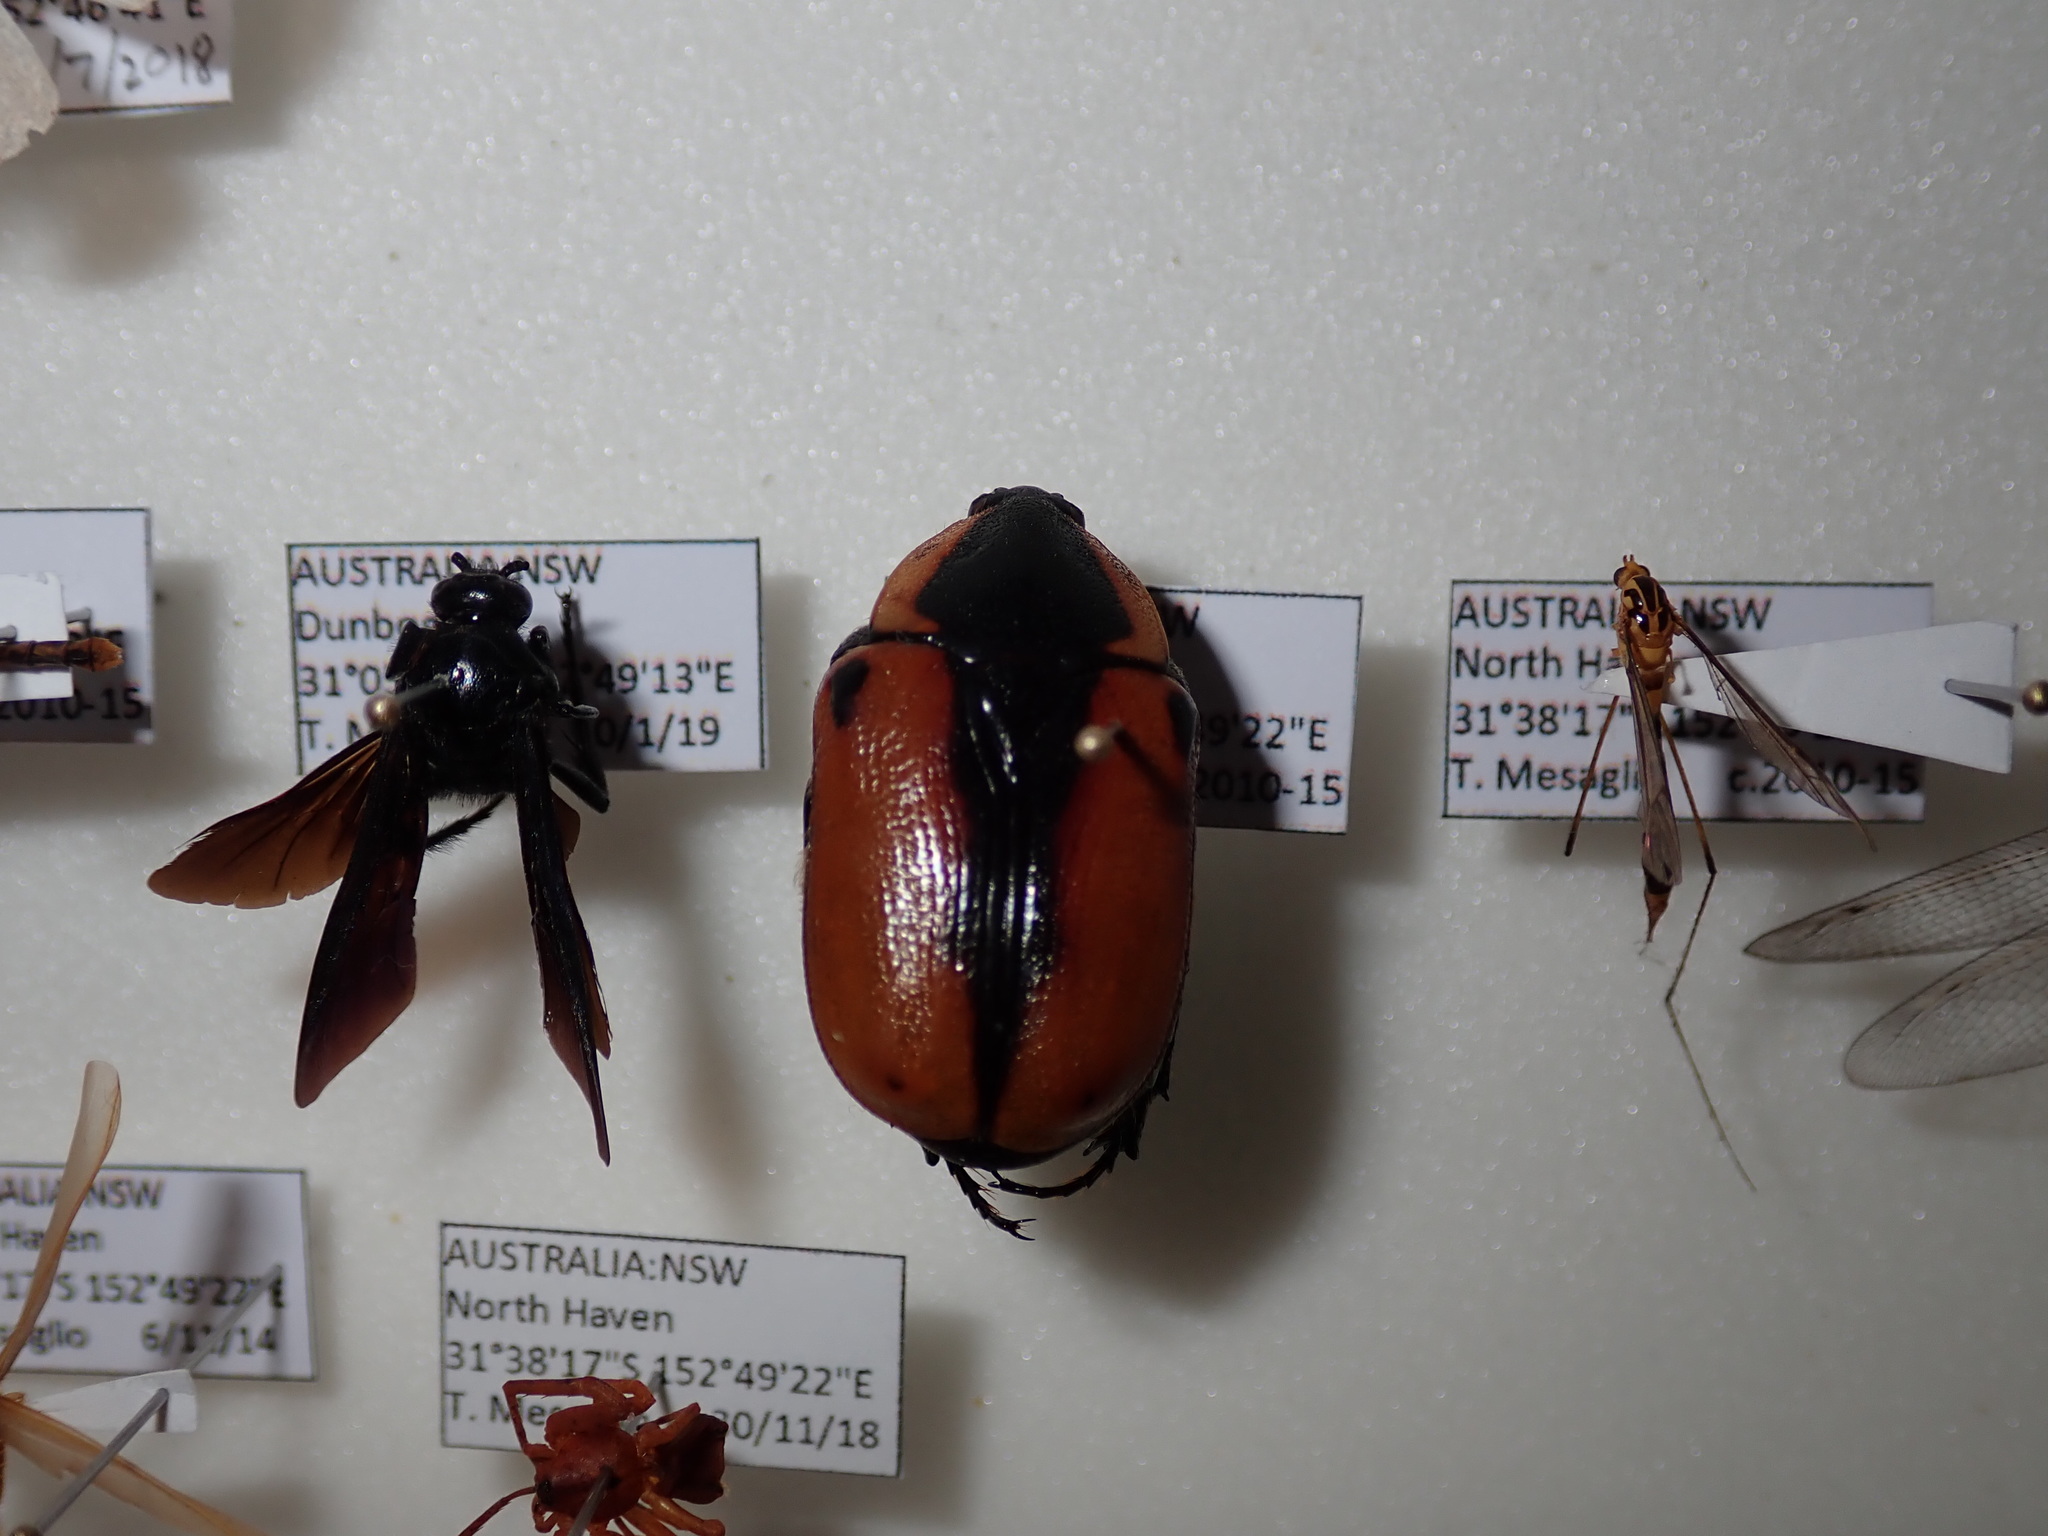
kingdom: Animalia
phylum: Arthropoda
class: Insecta
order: Coleoptera
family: Scarabaeidae
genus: Chondropyga
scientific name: Chondropyga dorsalis
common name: Cowboy beetle
